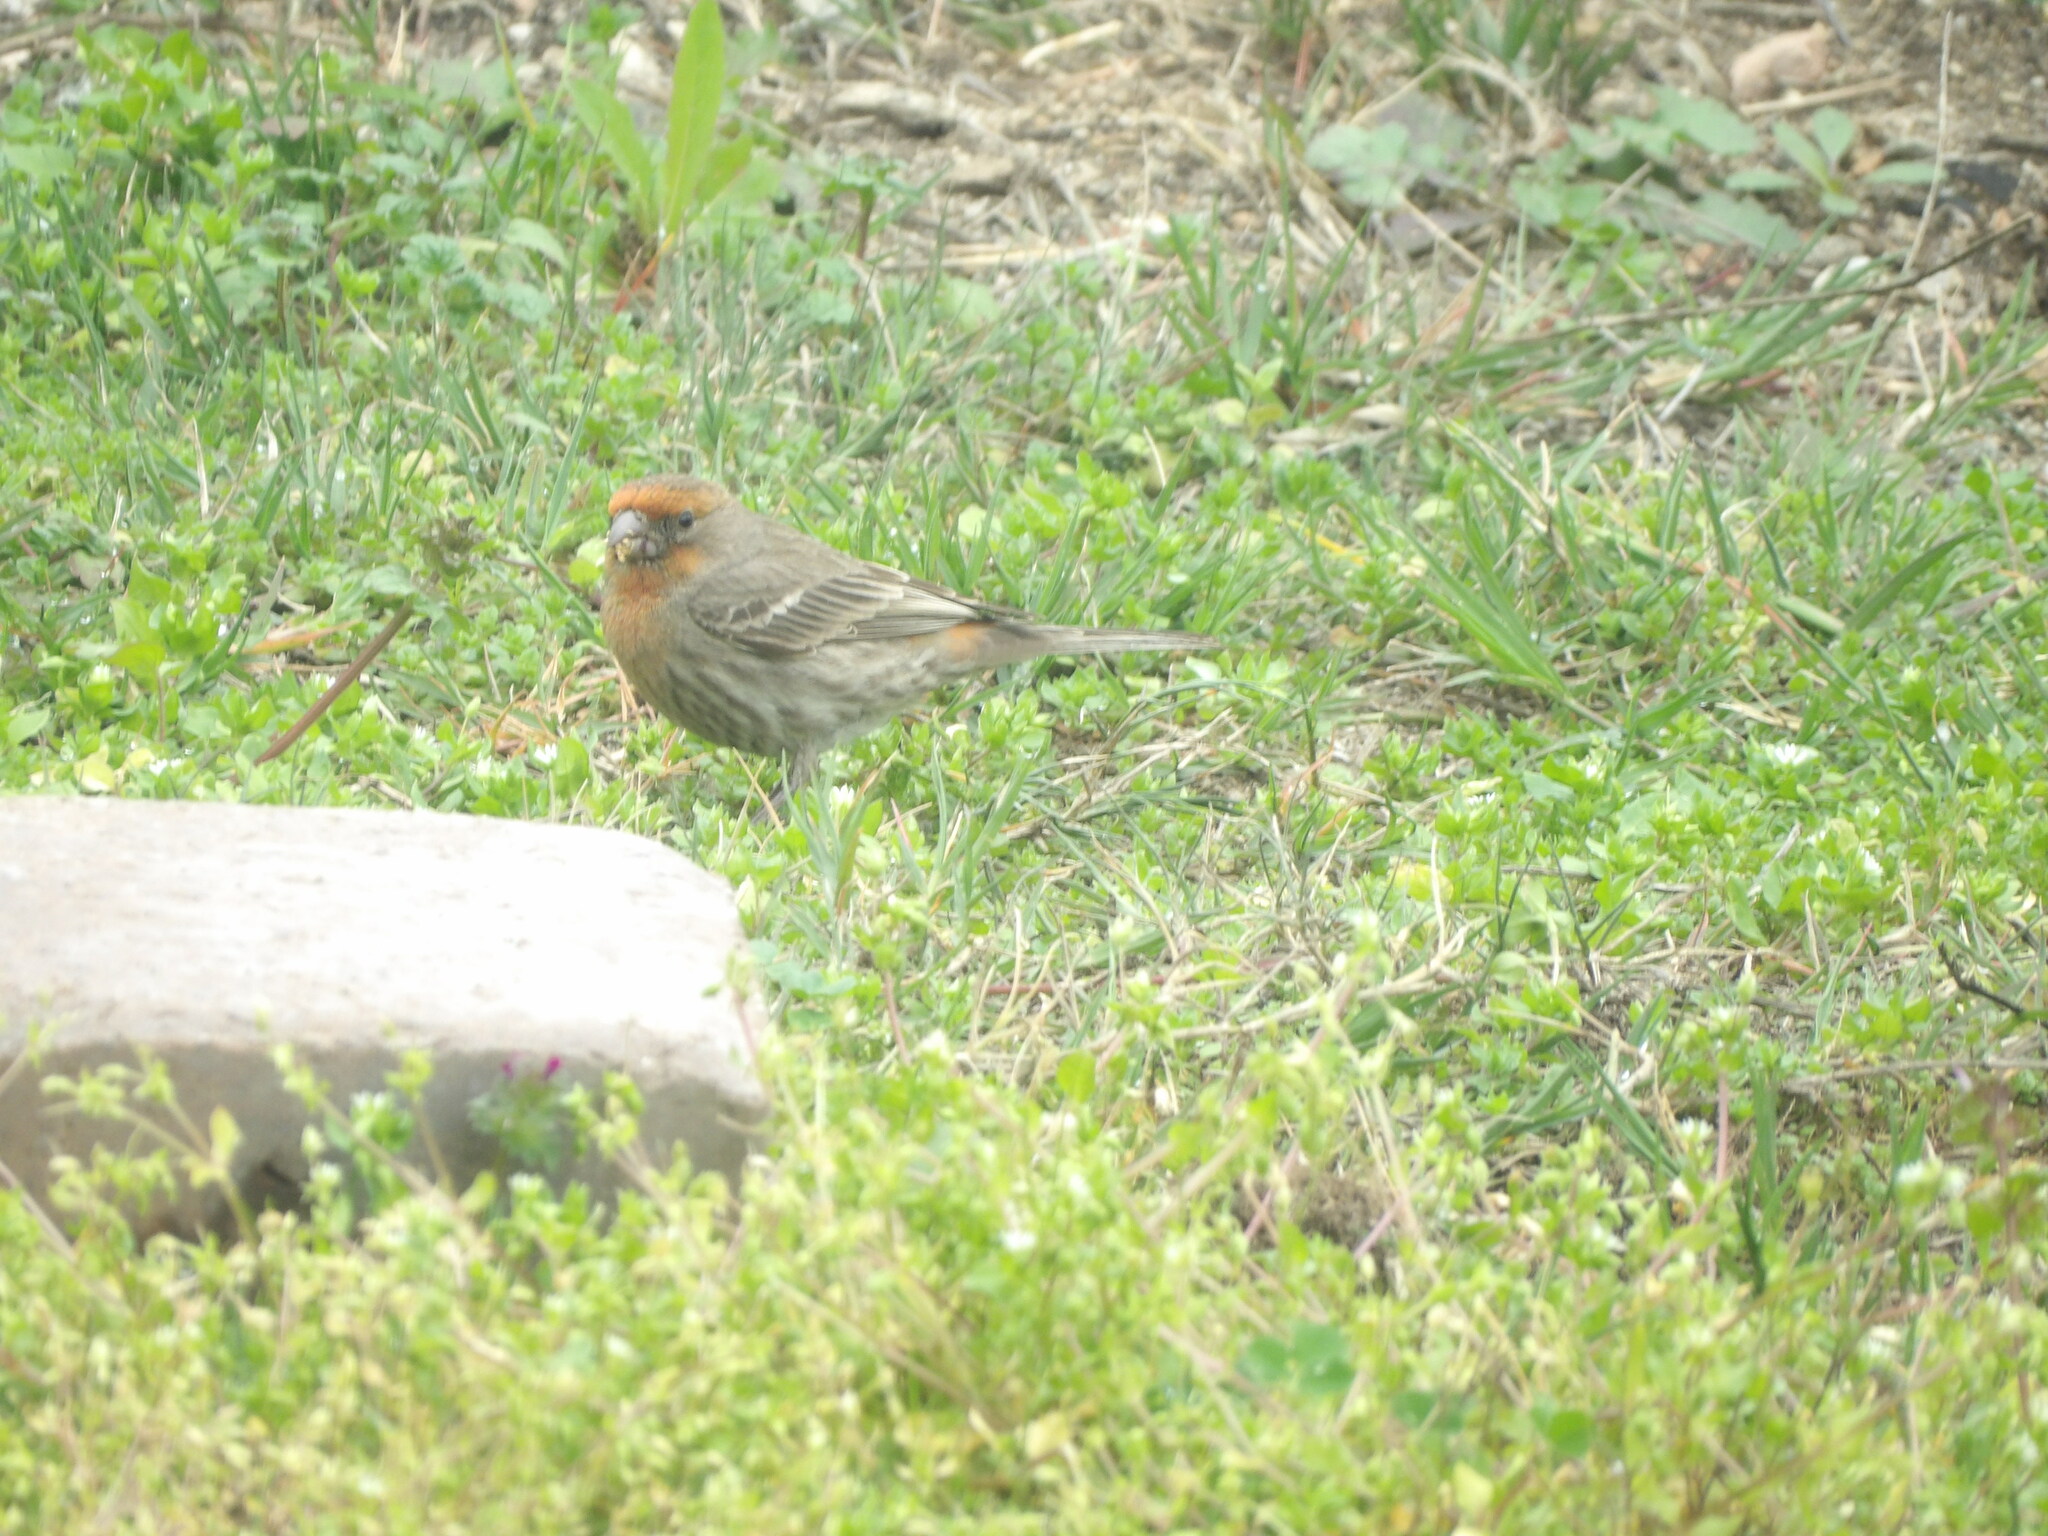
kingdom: Animalia
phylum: Chordata
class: Aves
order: Passeriformes
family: Fringillidae
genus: Haemorhous
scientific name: Haemorhous mexicanus
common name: House finch
